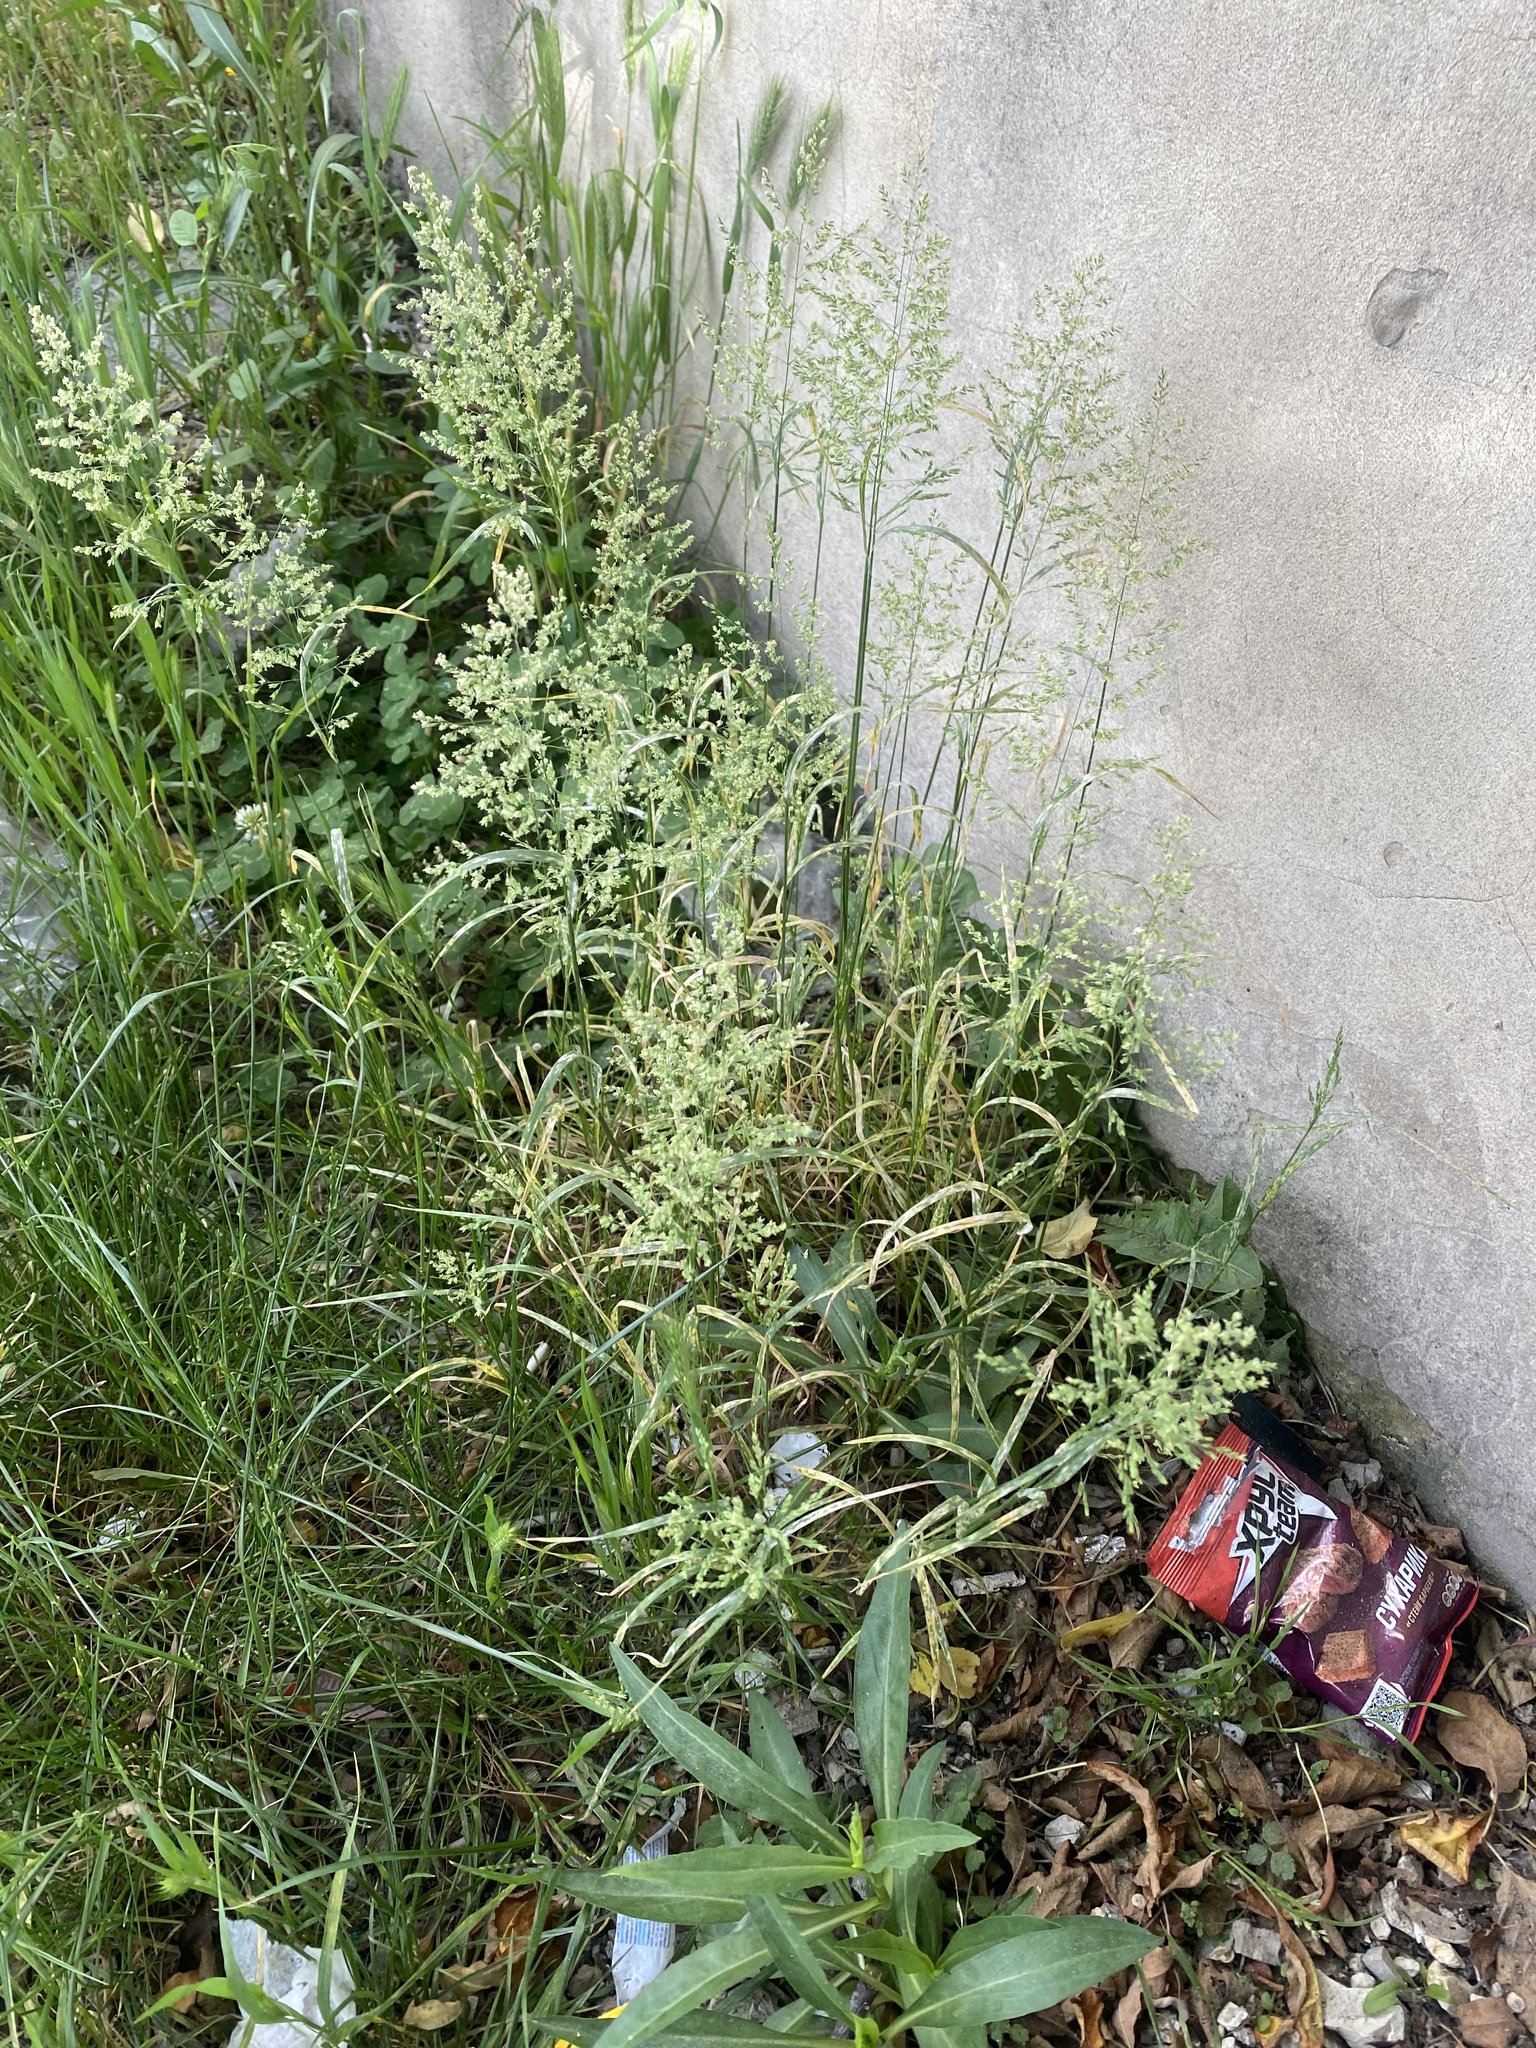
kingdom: Plantae
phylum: Tracheophyta
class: Liliopsida
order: Poales
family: Poaceae
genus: Poa
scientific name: Poa pratensis
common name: Kentucky bluegrass
